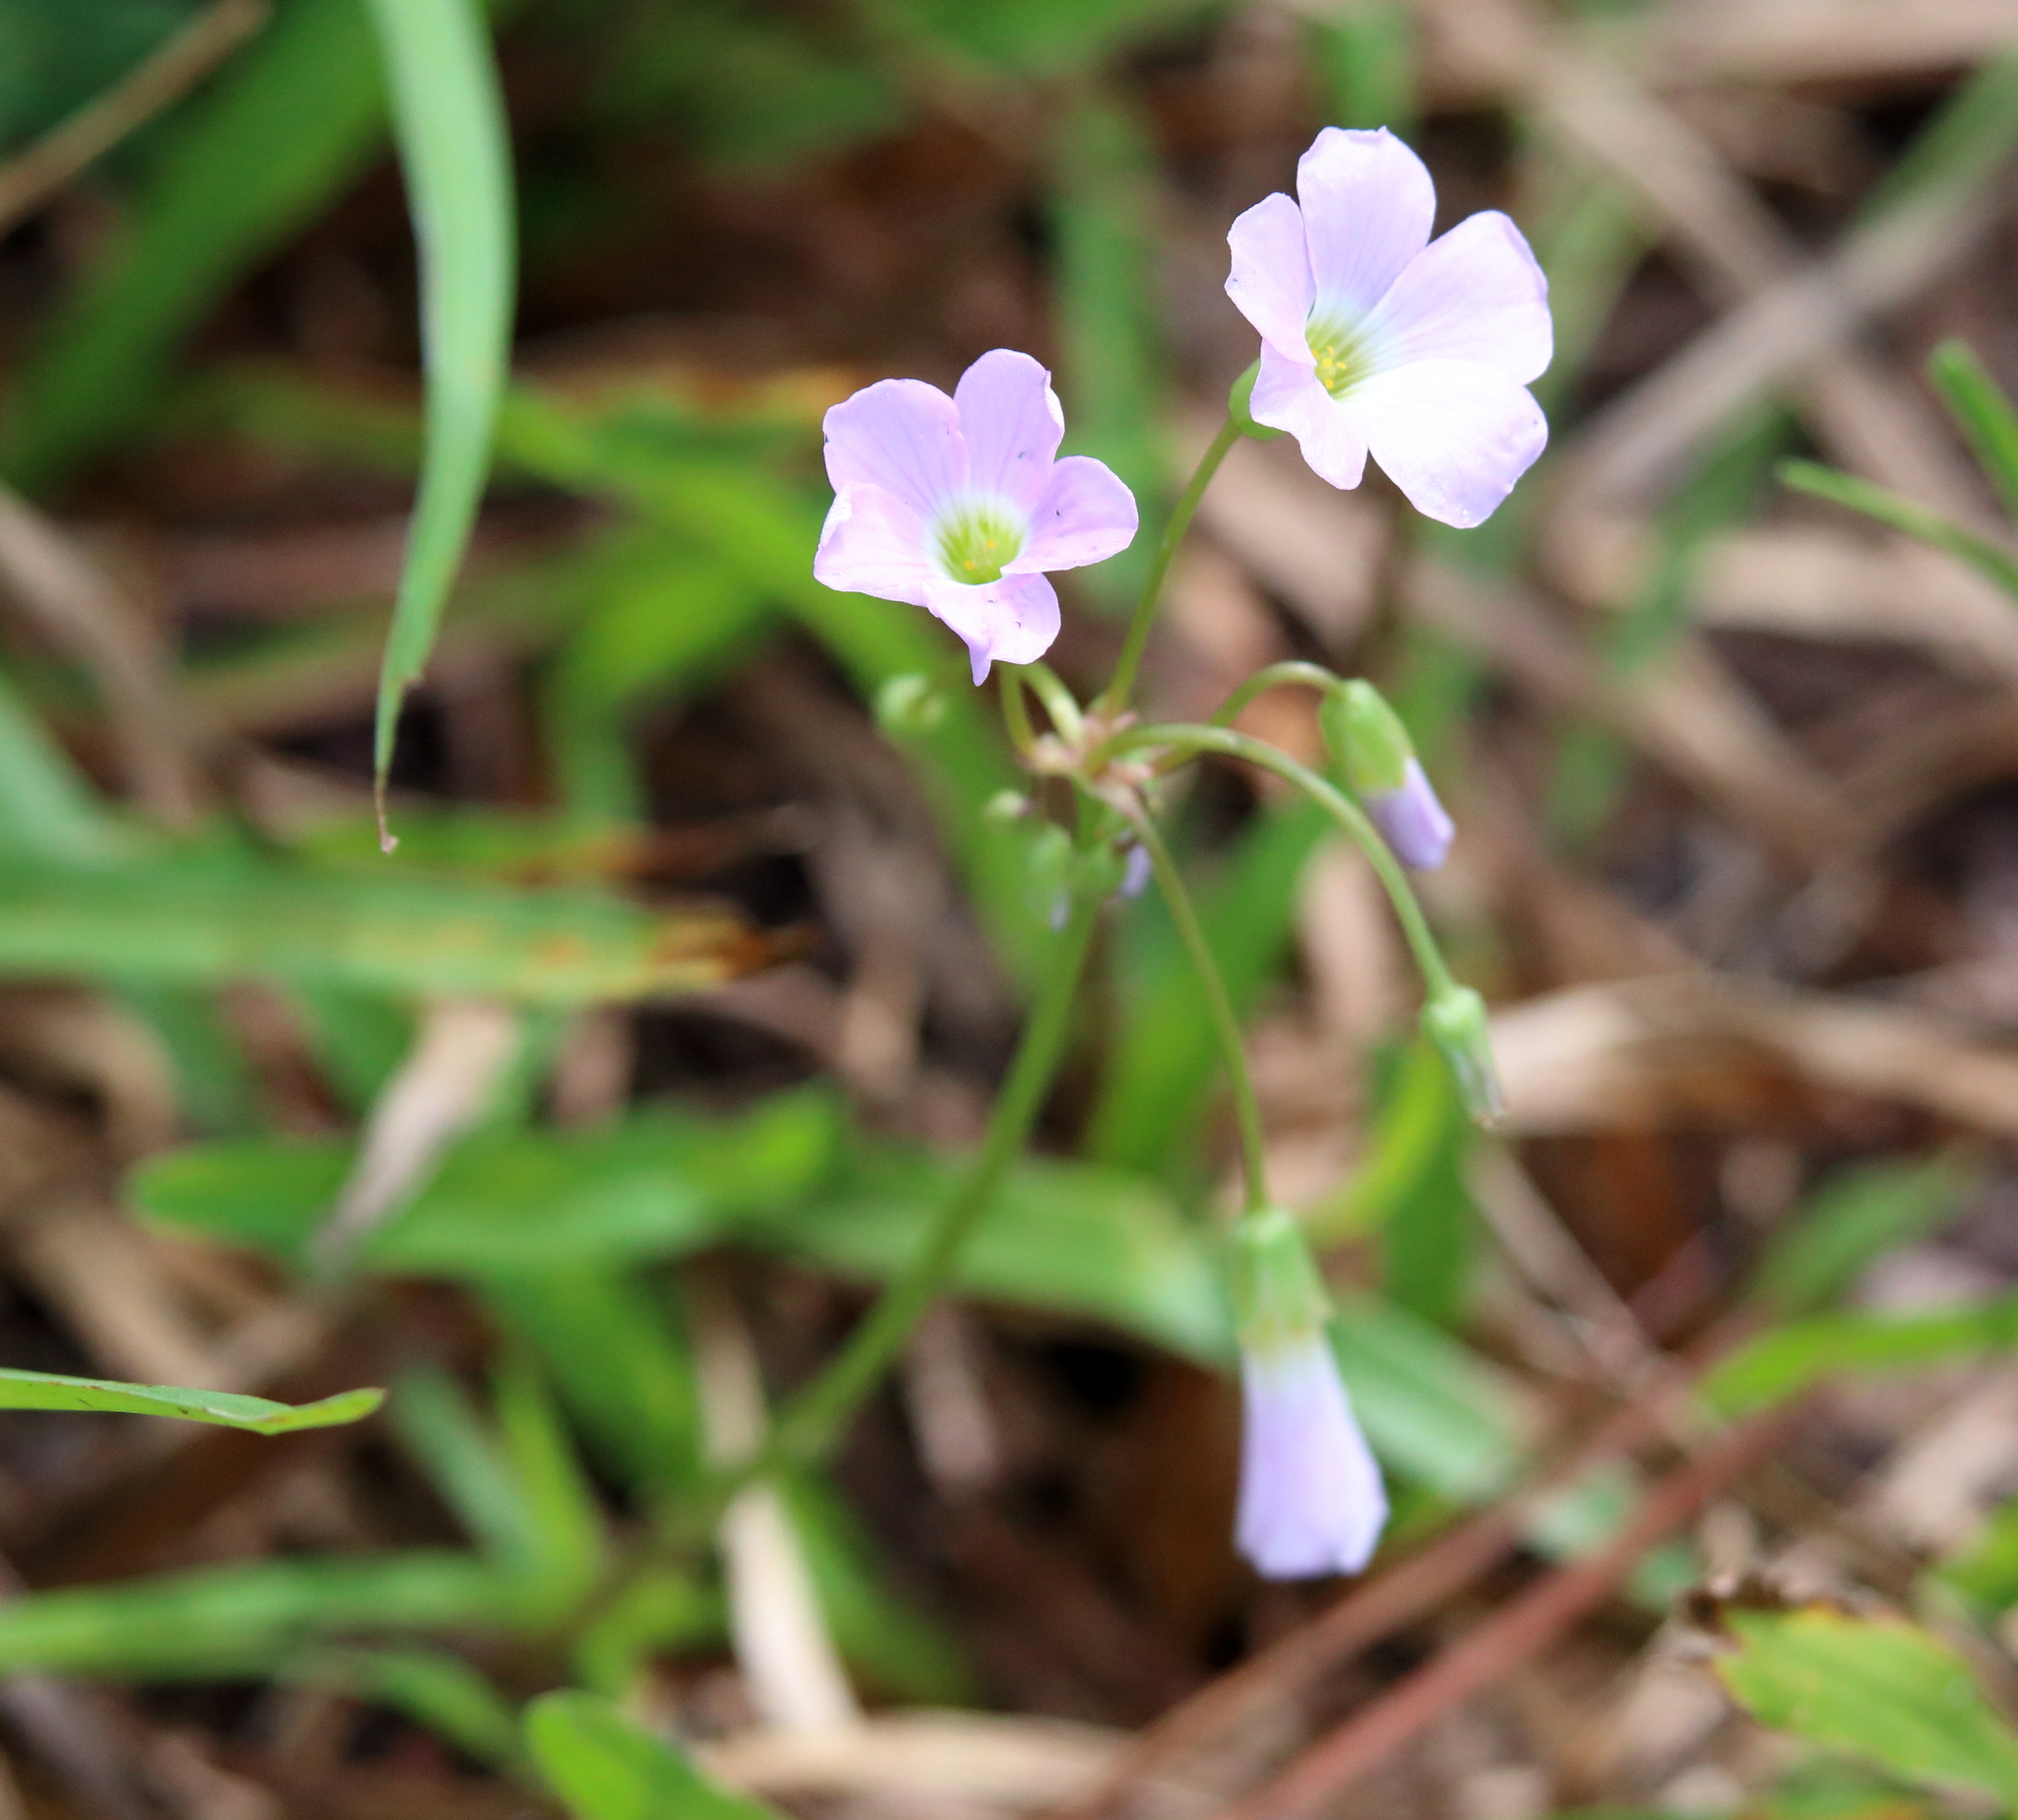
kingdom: Plantae
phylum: Tracheophyta
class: Magnoliopsida
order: Oxalidales
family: Oxalidaceae
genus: Oxalis
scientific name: Oxalis violacea
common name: Violet wood-sorrel
